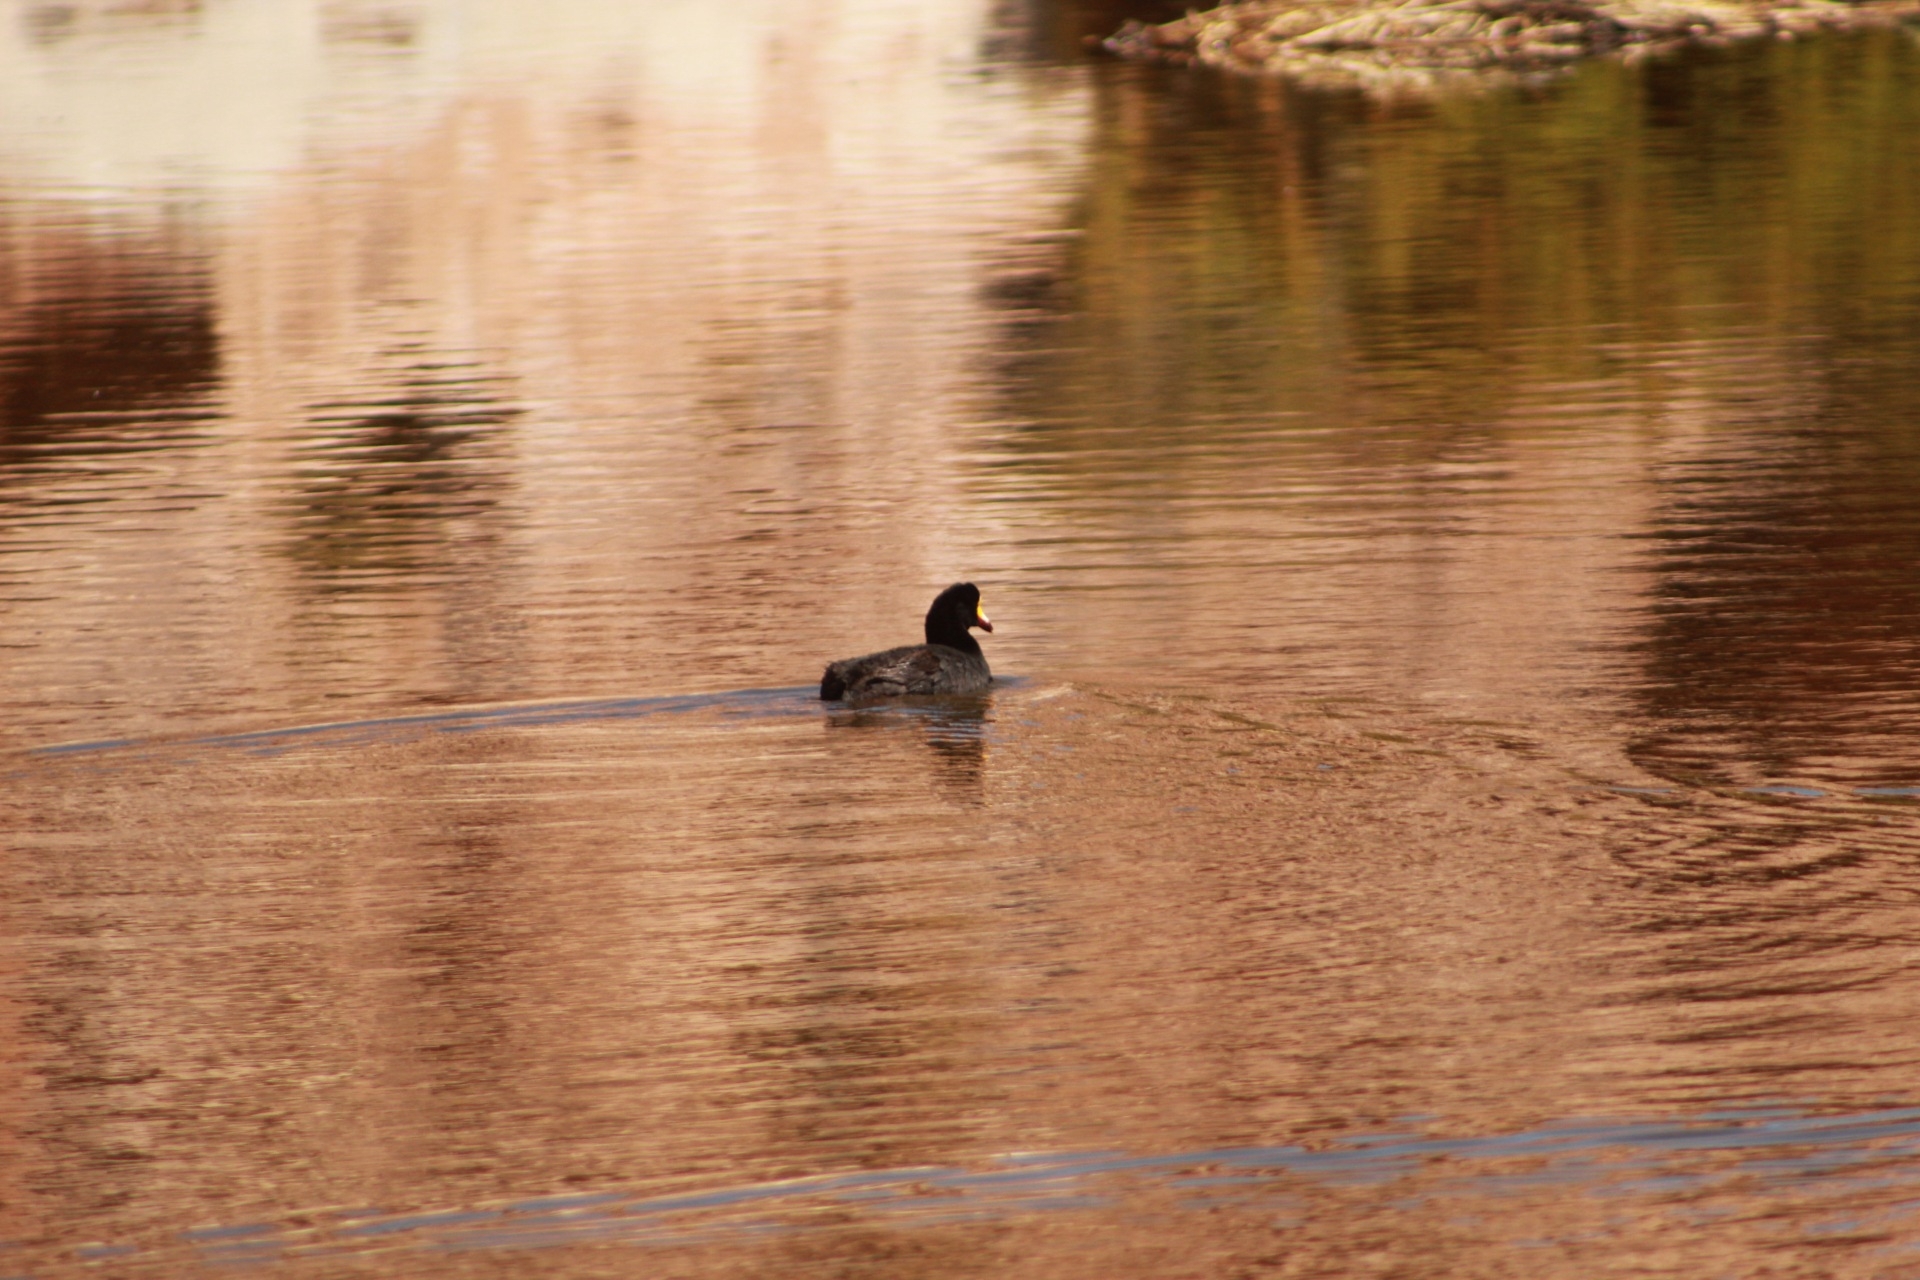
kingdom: Animalia
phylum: Chordata
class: Aves
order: Gruiformes
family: Rallidae
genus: Fulica
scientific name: Fulica gigantea
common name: Giant coot
